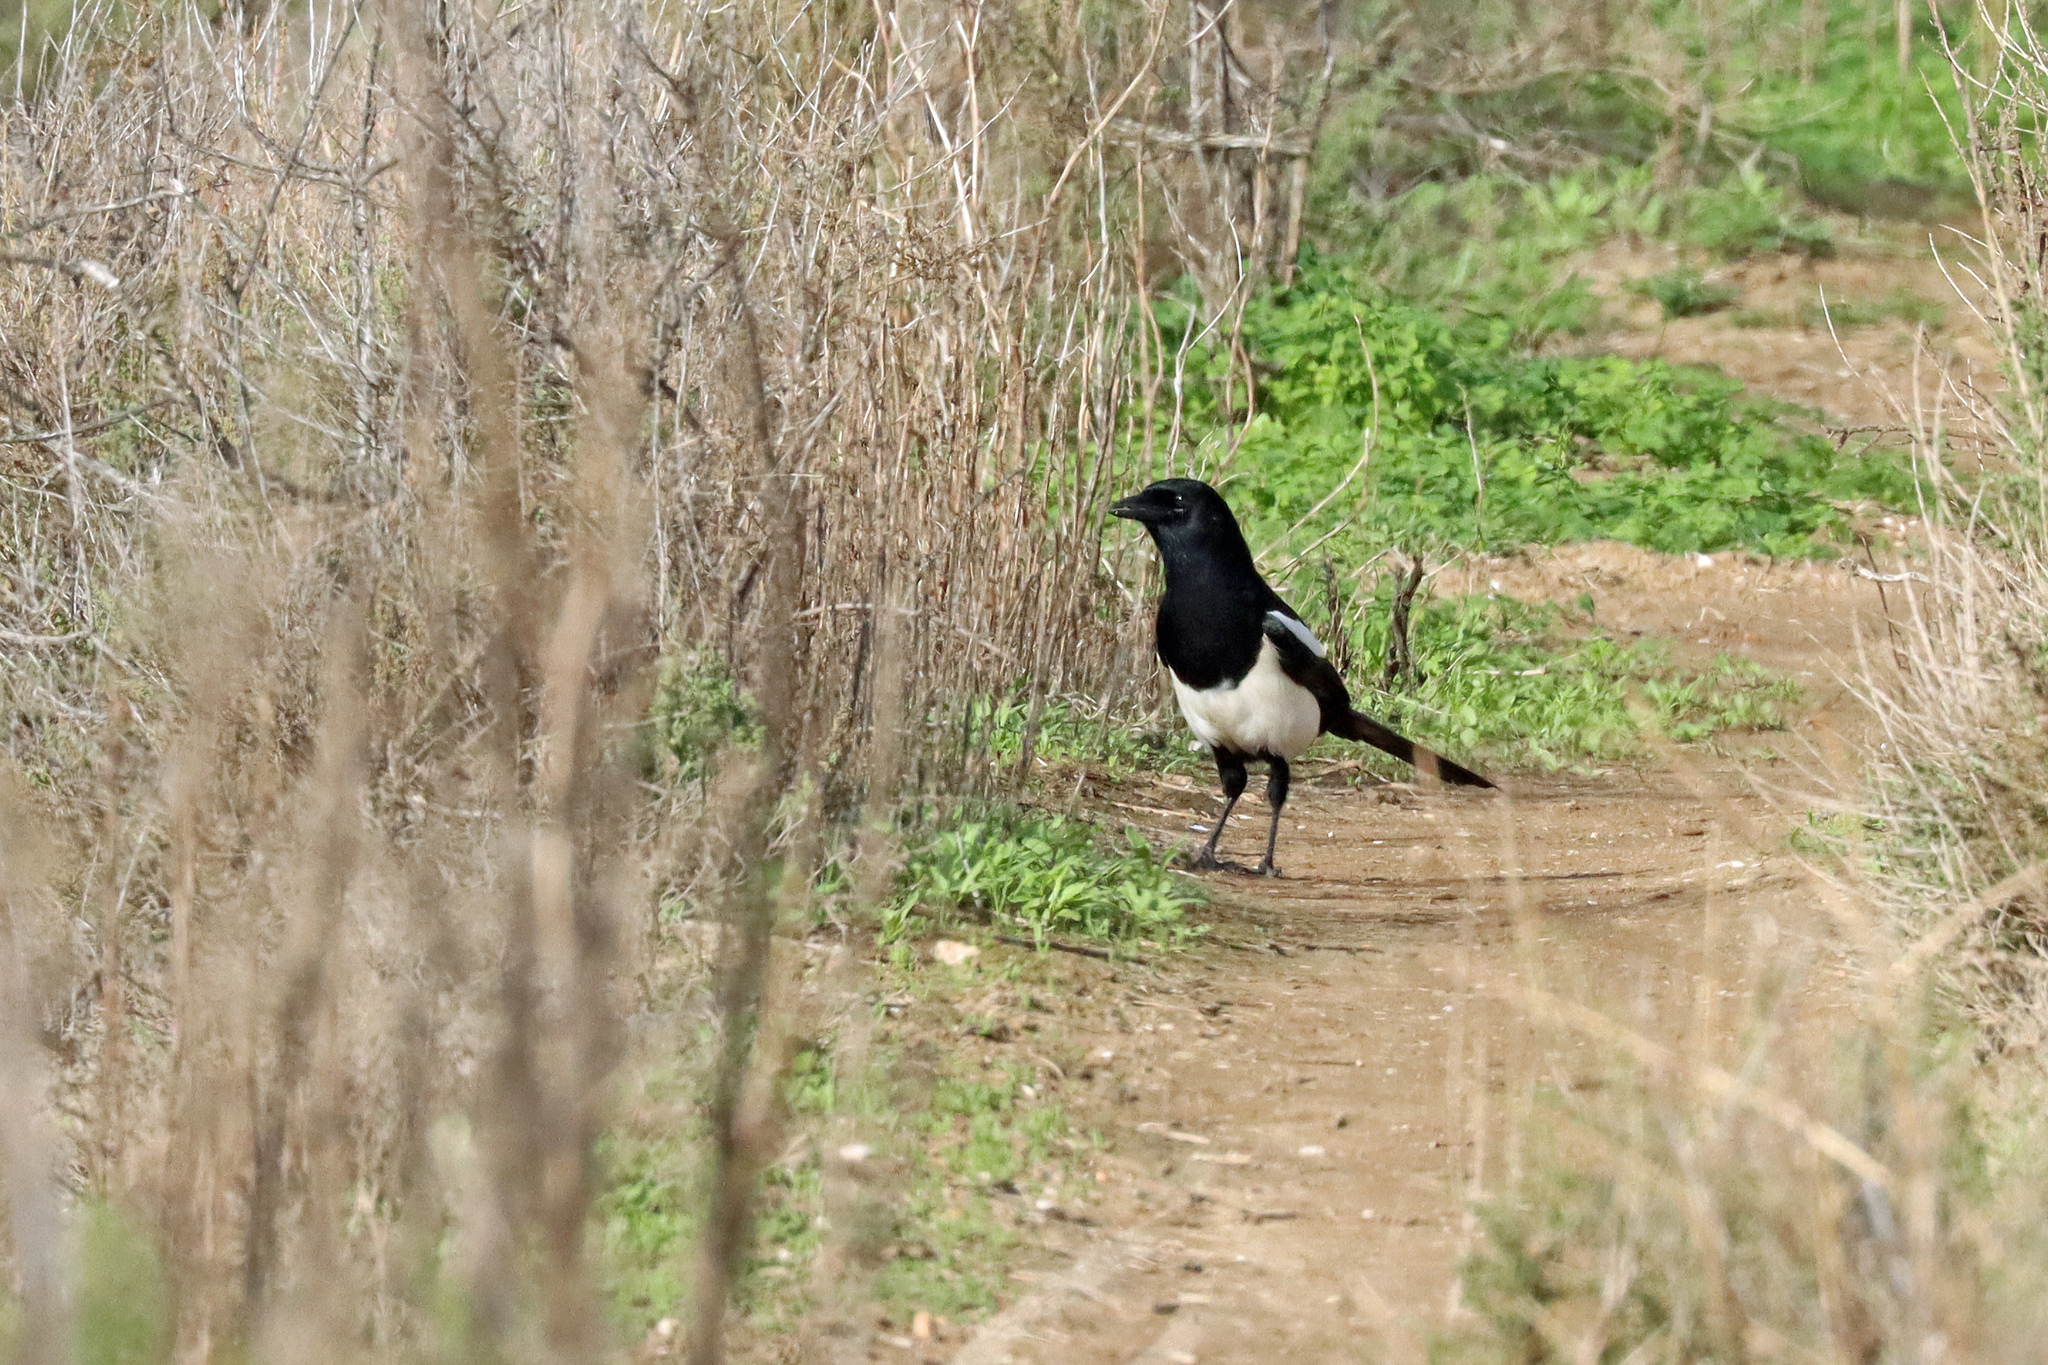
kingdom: Animalia
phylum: Chordata
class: Aves
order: Passeriformes
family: Corvidae
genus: Pica
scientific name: Pica pica
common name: Eurasian magpie
